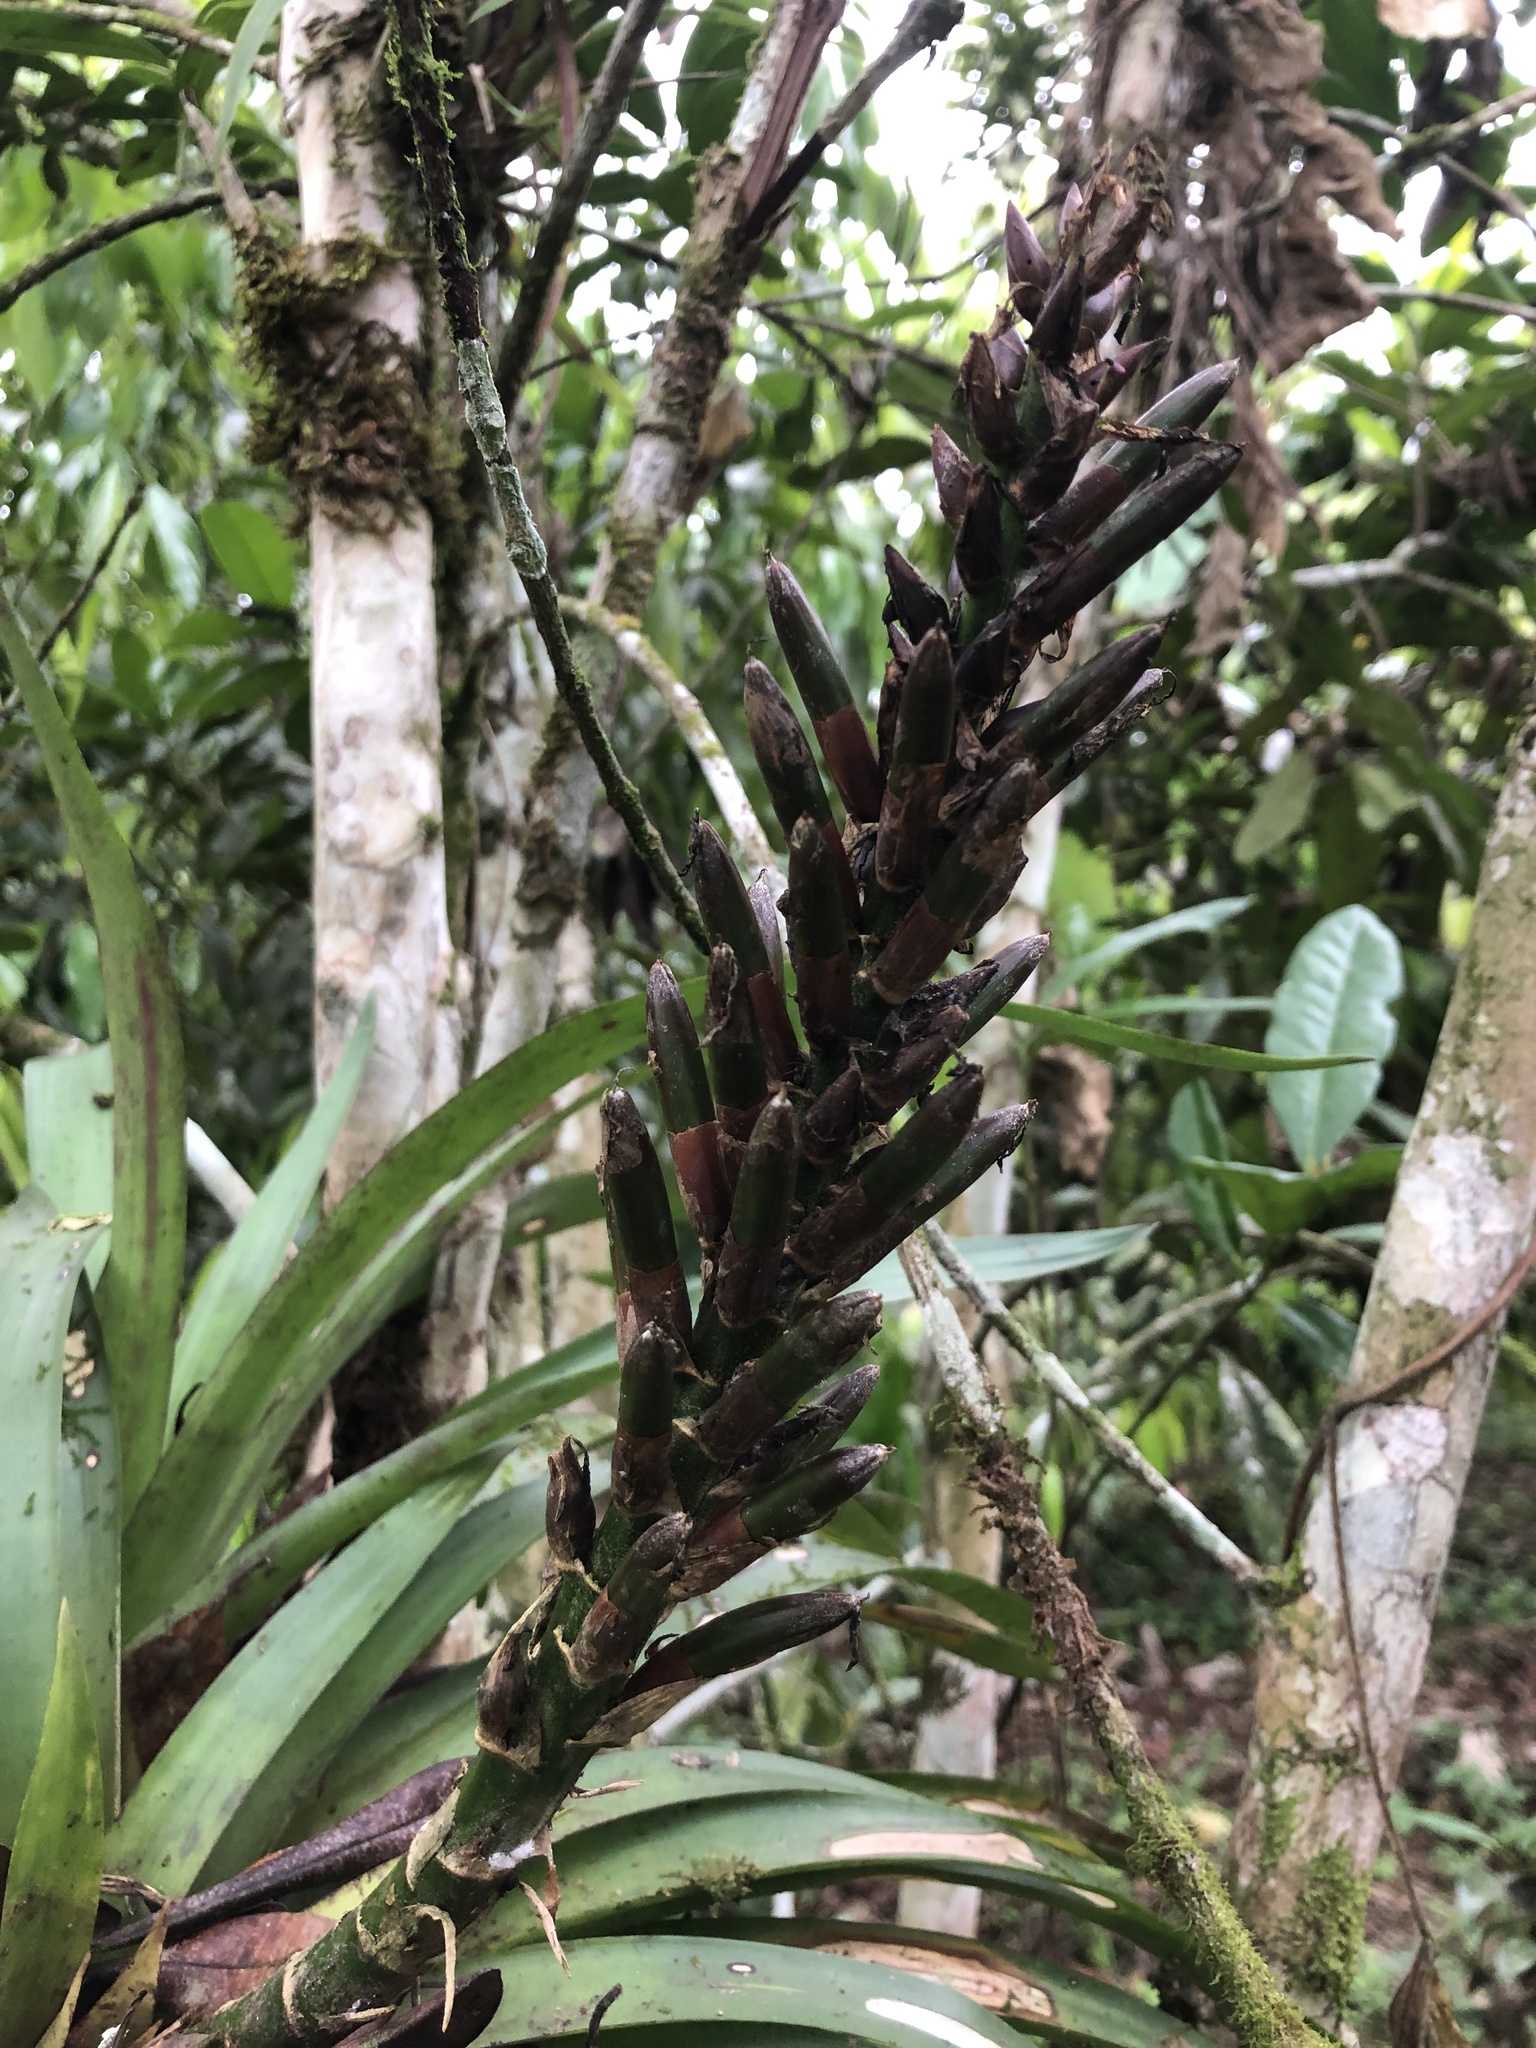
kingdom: Plantae
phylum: Tracheophyta
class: Liliopsida
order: Poales
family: Bromeliaceae
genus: Guzmania
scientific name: Guzmania monostachia
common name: West indian tufted airplant
